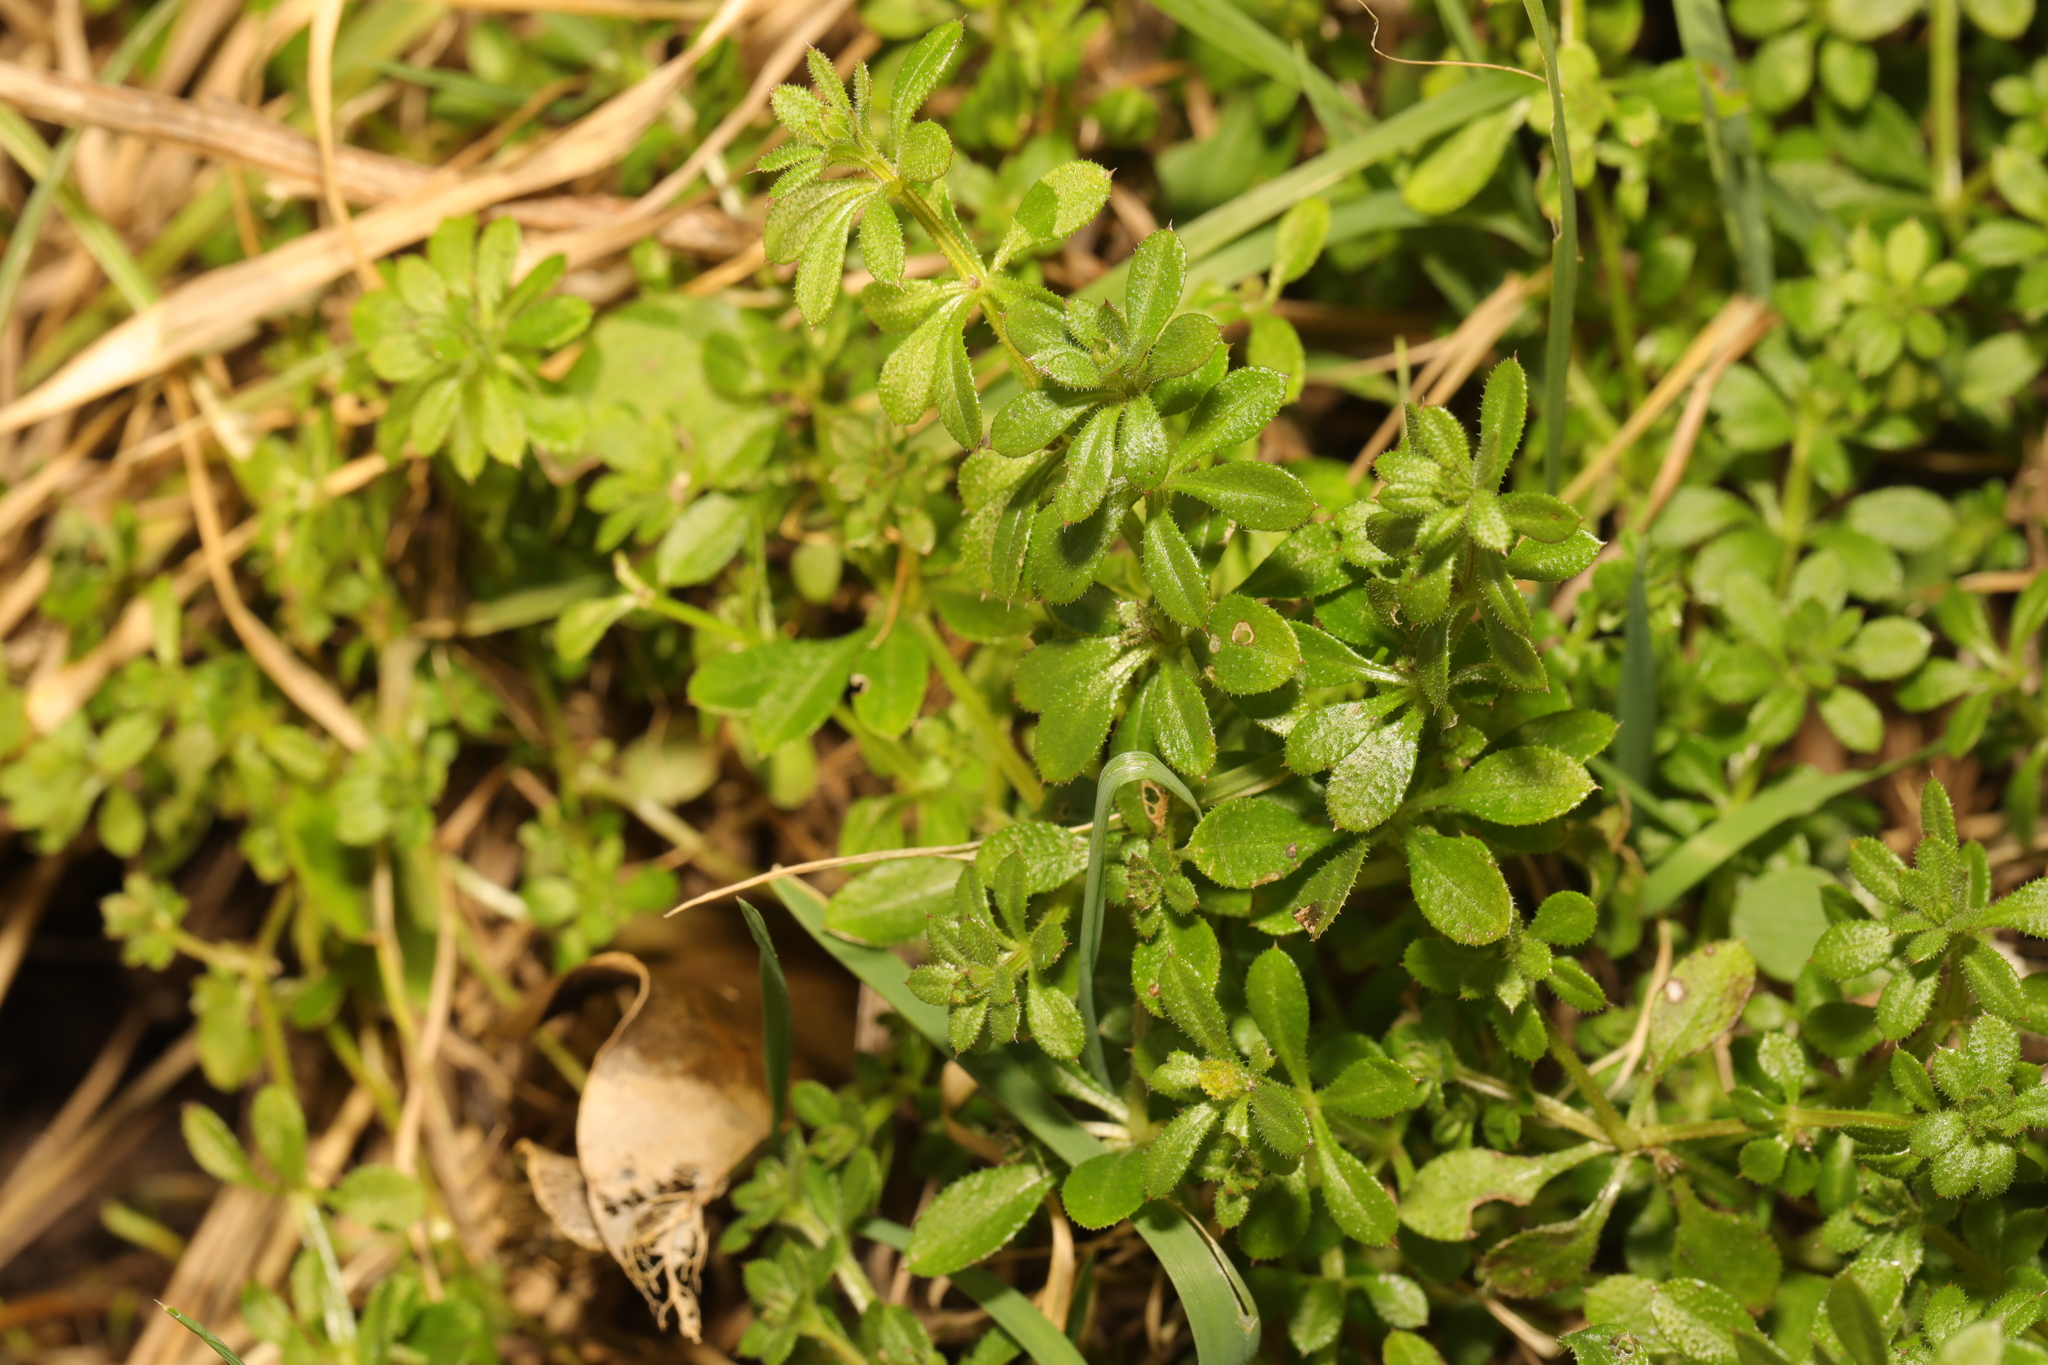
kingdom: Plantae
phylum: Tracheophyta
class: Magnoliopsida
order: Gentianales
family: Rubiaceae
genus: Galium
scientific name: Galium aparine
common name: Cleavers
